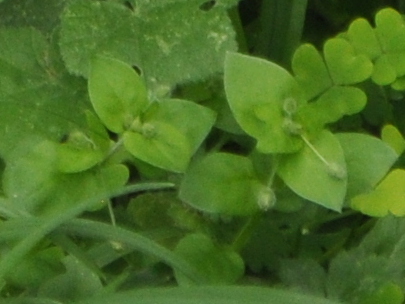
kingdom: Plantae
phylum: Tracheophyta
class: Magnoliopsida
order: Caryophyllales
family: Caryophyllaceae
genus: Stellaria
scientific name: Stellaria media
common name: Common chickweed
